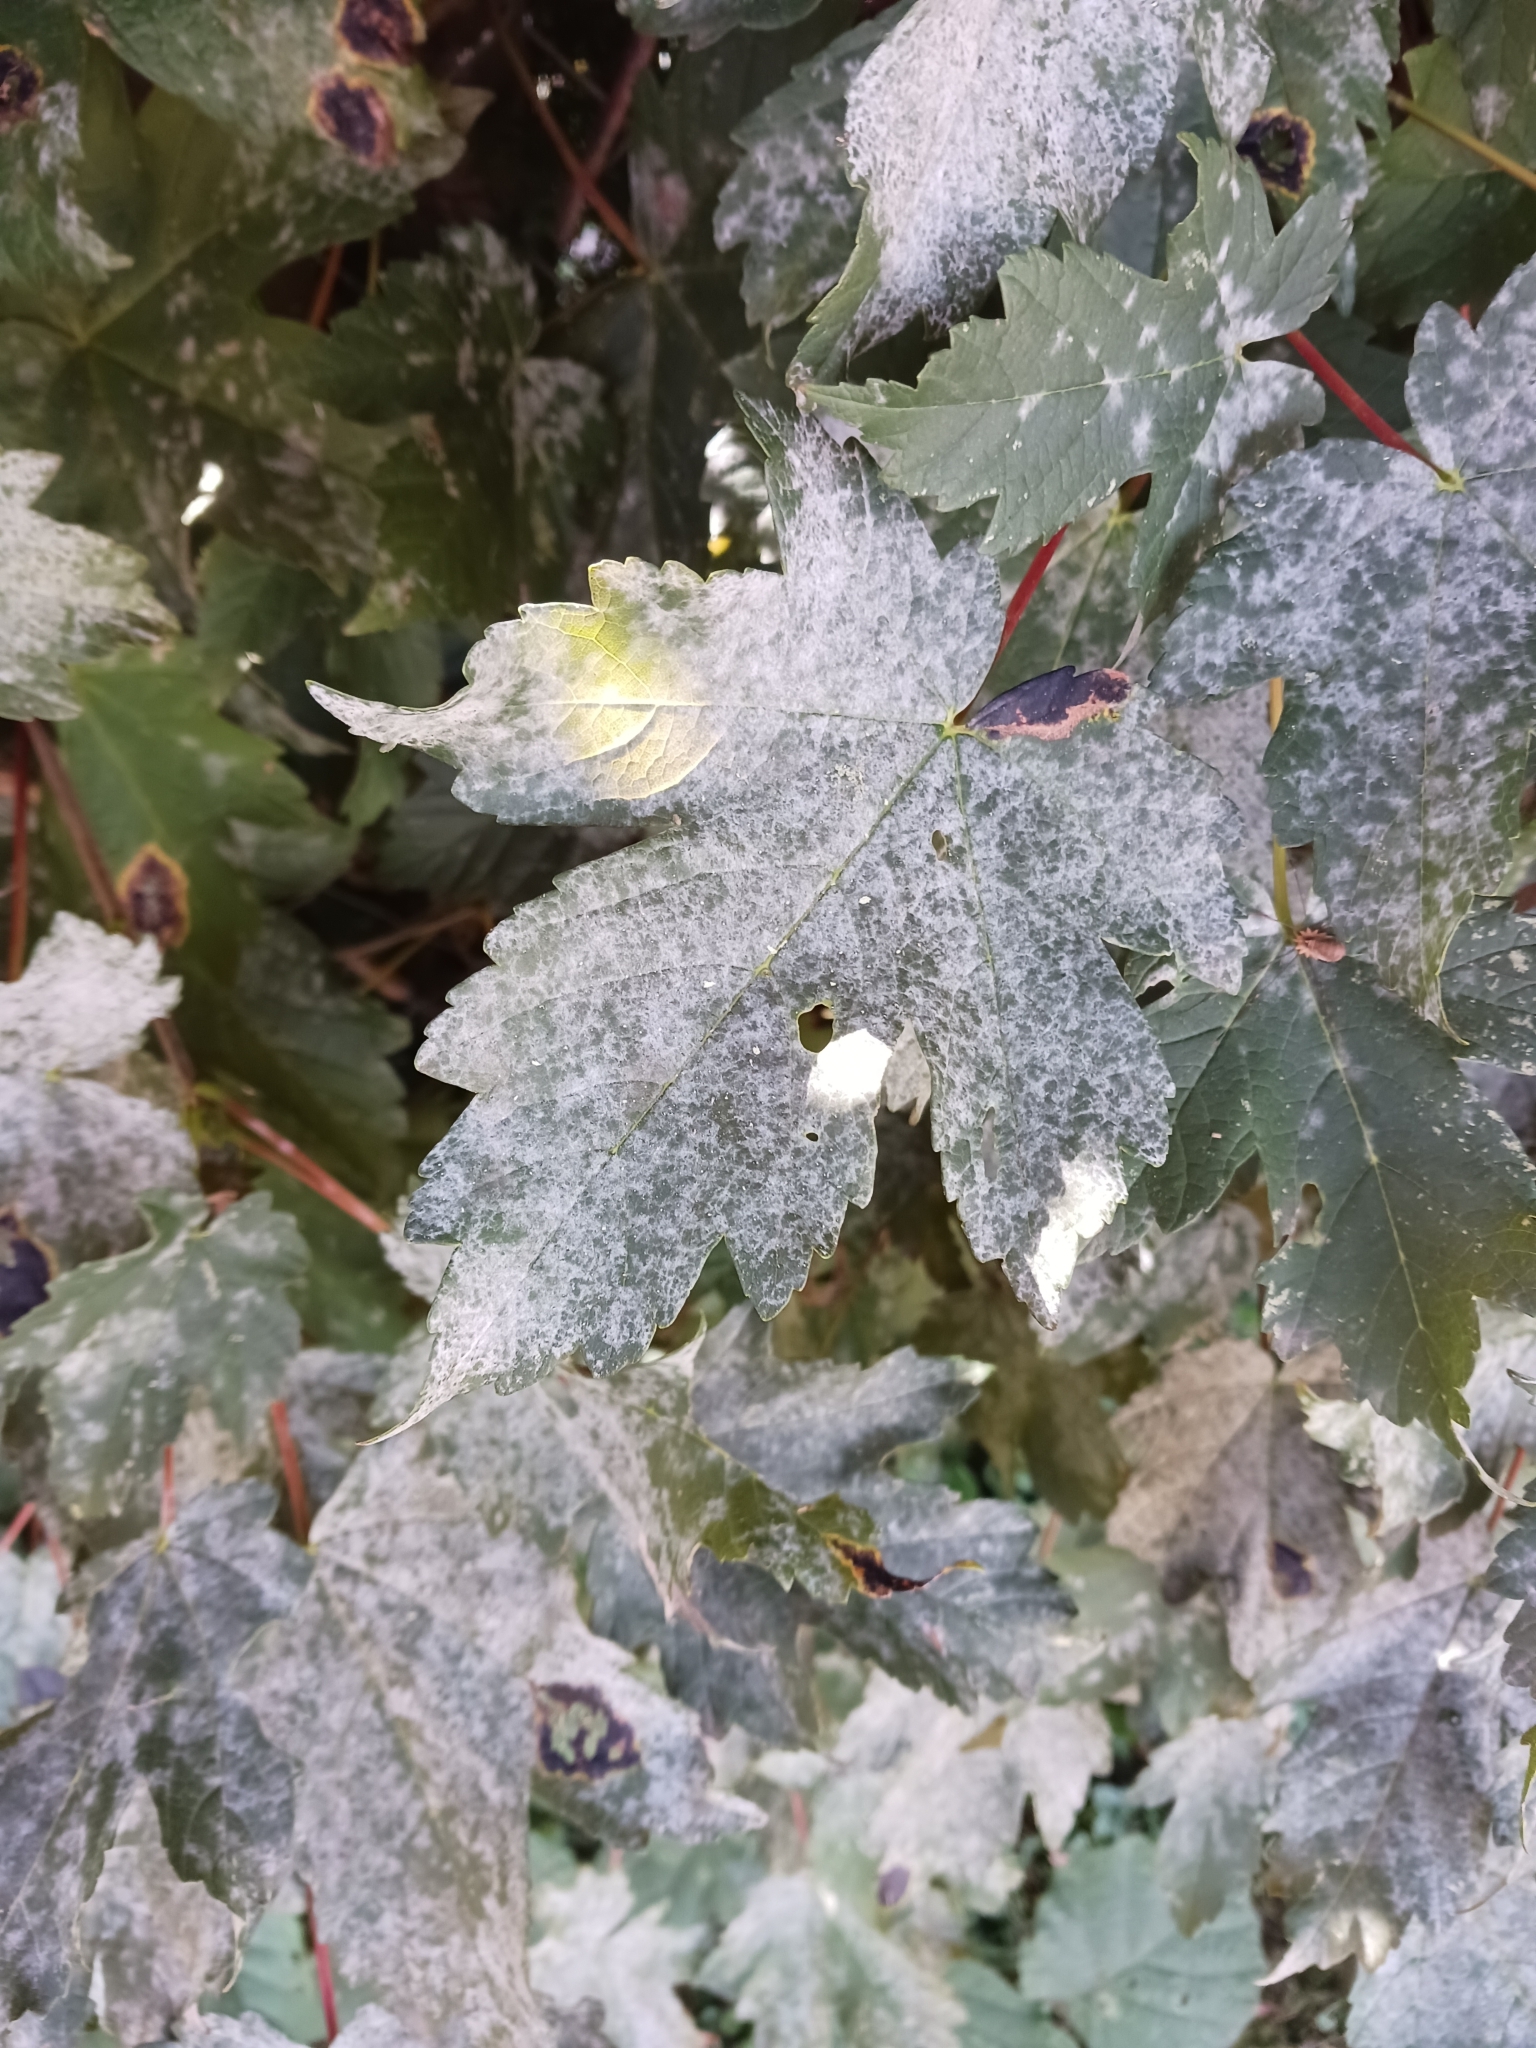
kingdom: Fungi
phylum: Ascomycota
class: Leotiomycetes
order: Helotiales
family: Erysiphaceae
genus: Sawadaea
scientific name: Sawadaea bicornis
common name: Maple mildew
